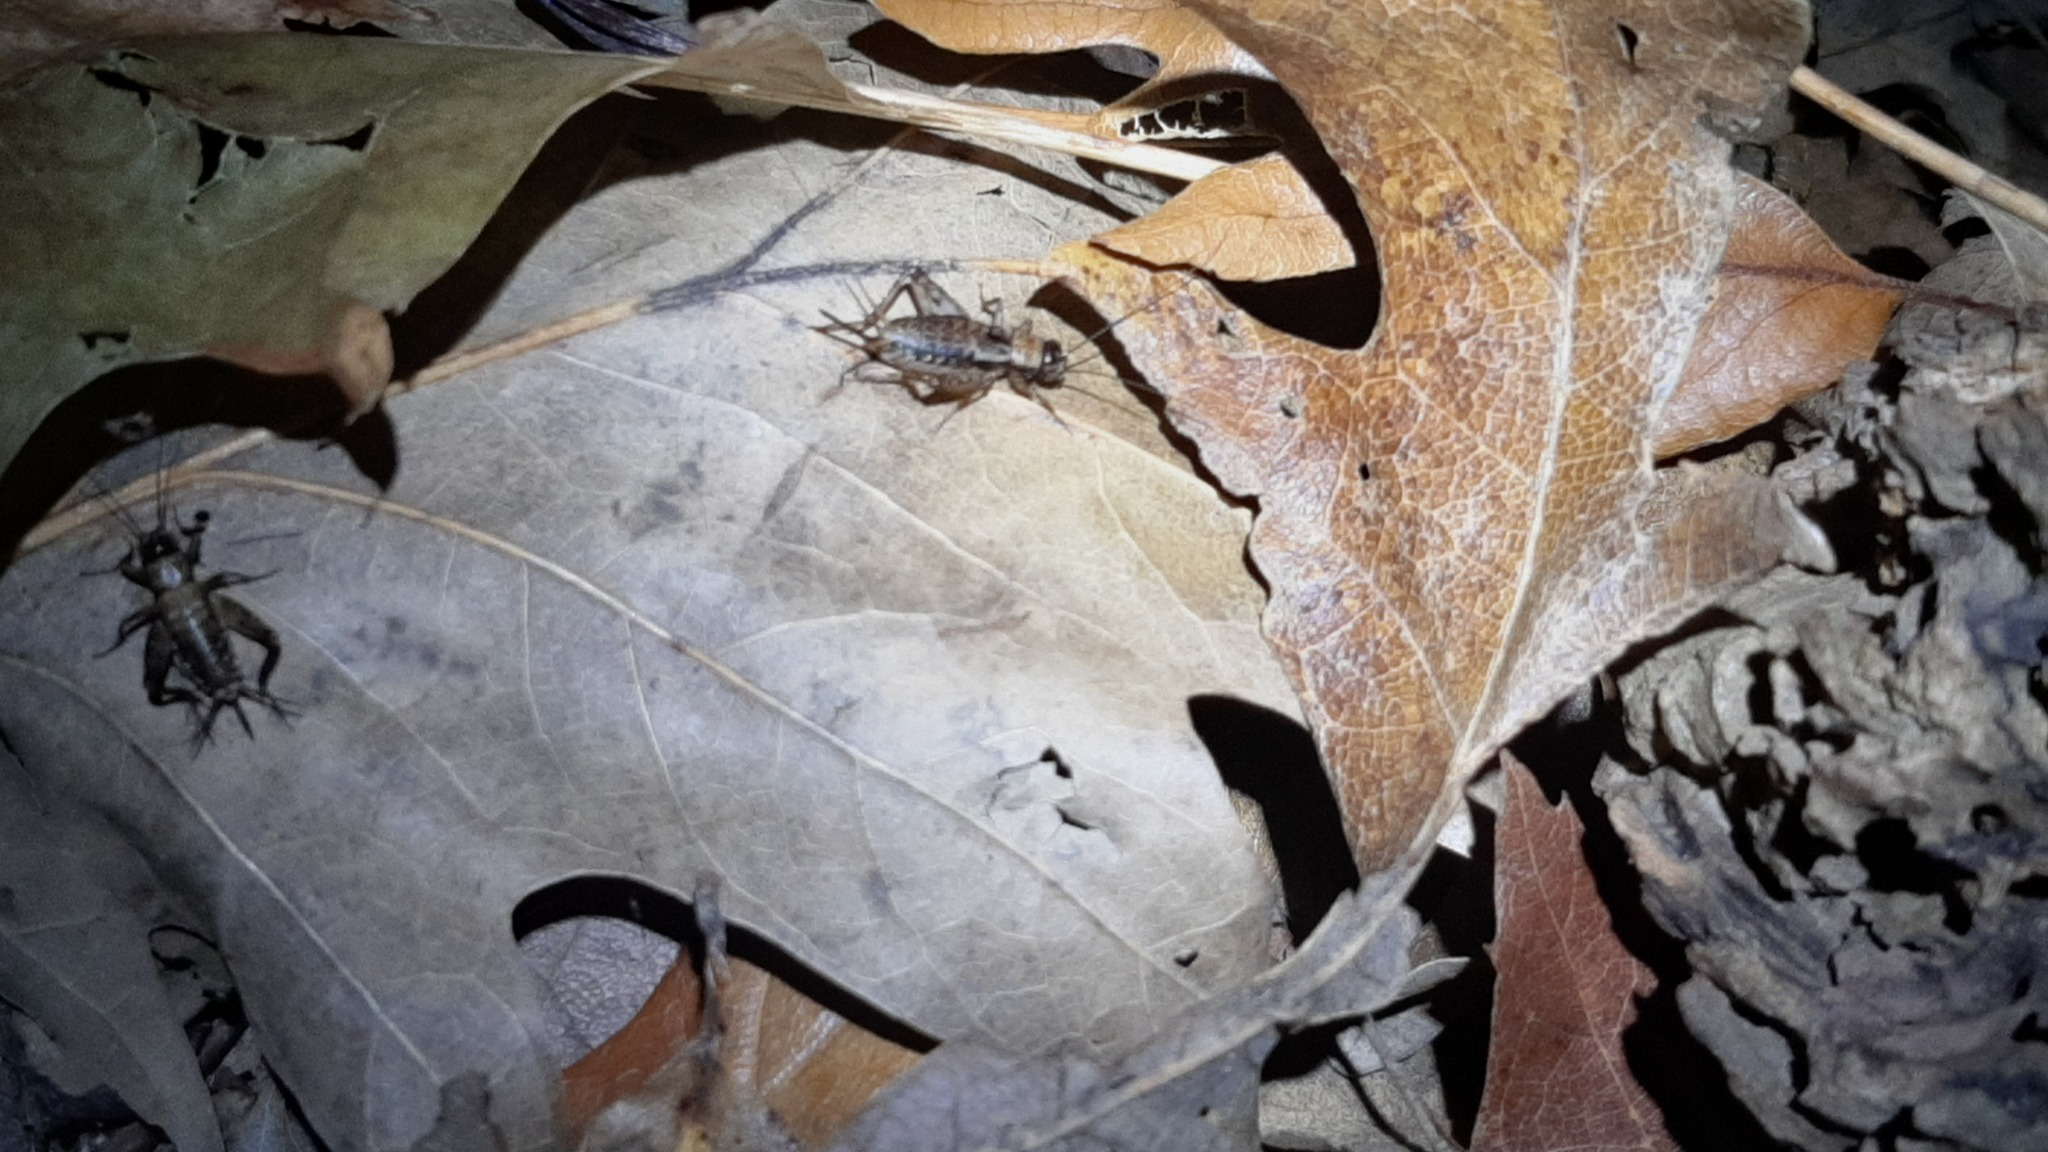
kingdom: Animalia
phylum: Arthropoda
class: Insecta
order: Orthoptera
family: Trigonidiidae
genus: Nemobius
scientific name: Nemobius sylvestris
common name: Wood-cricket
